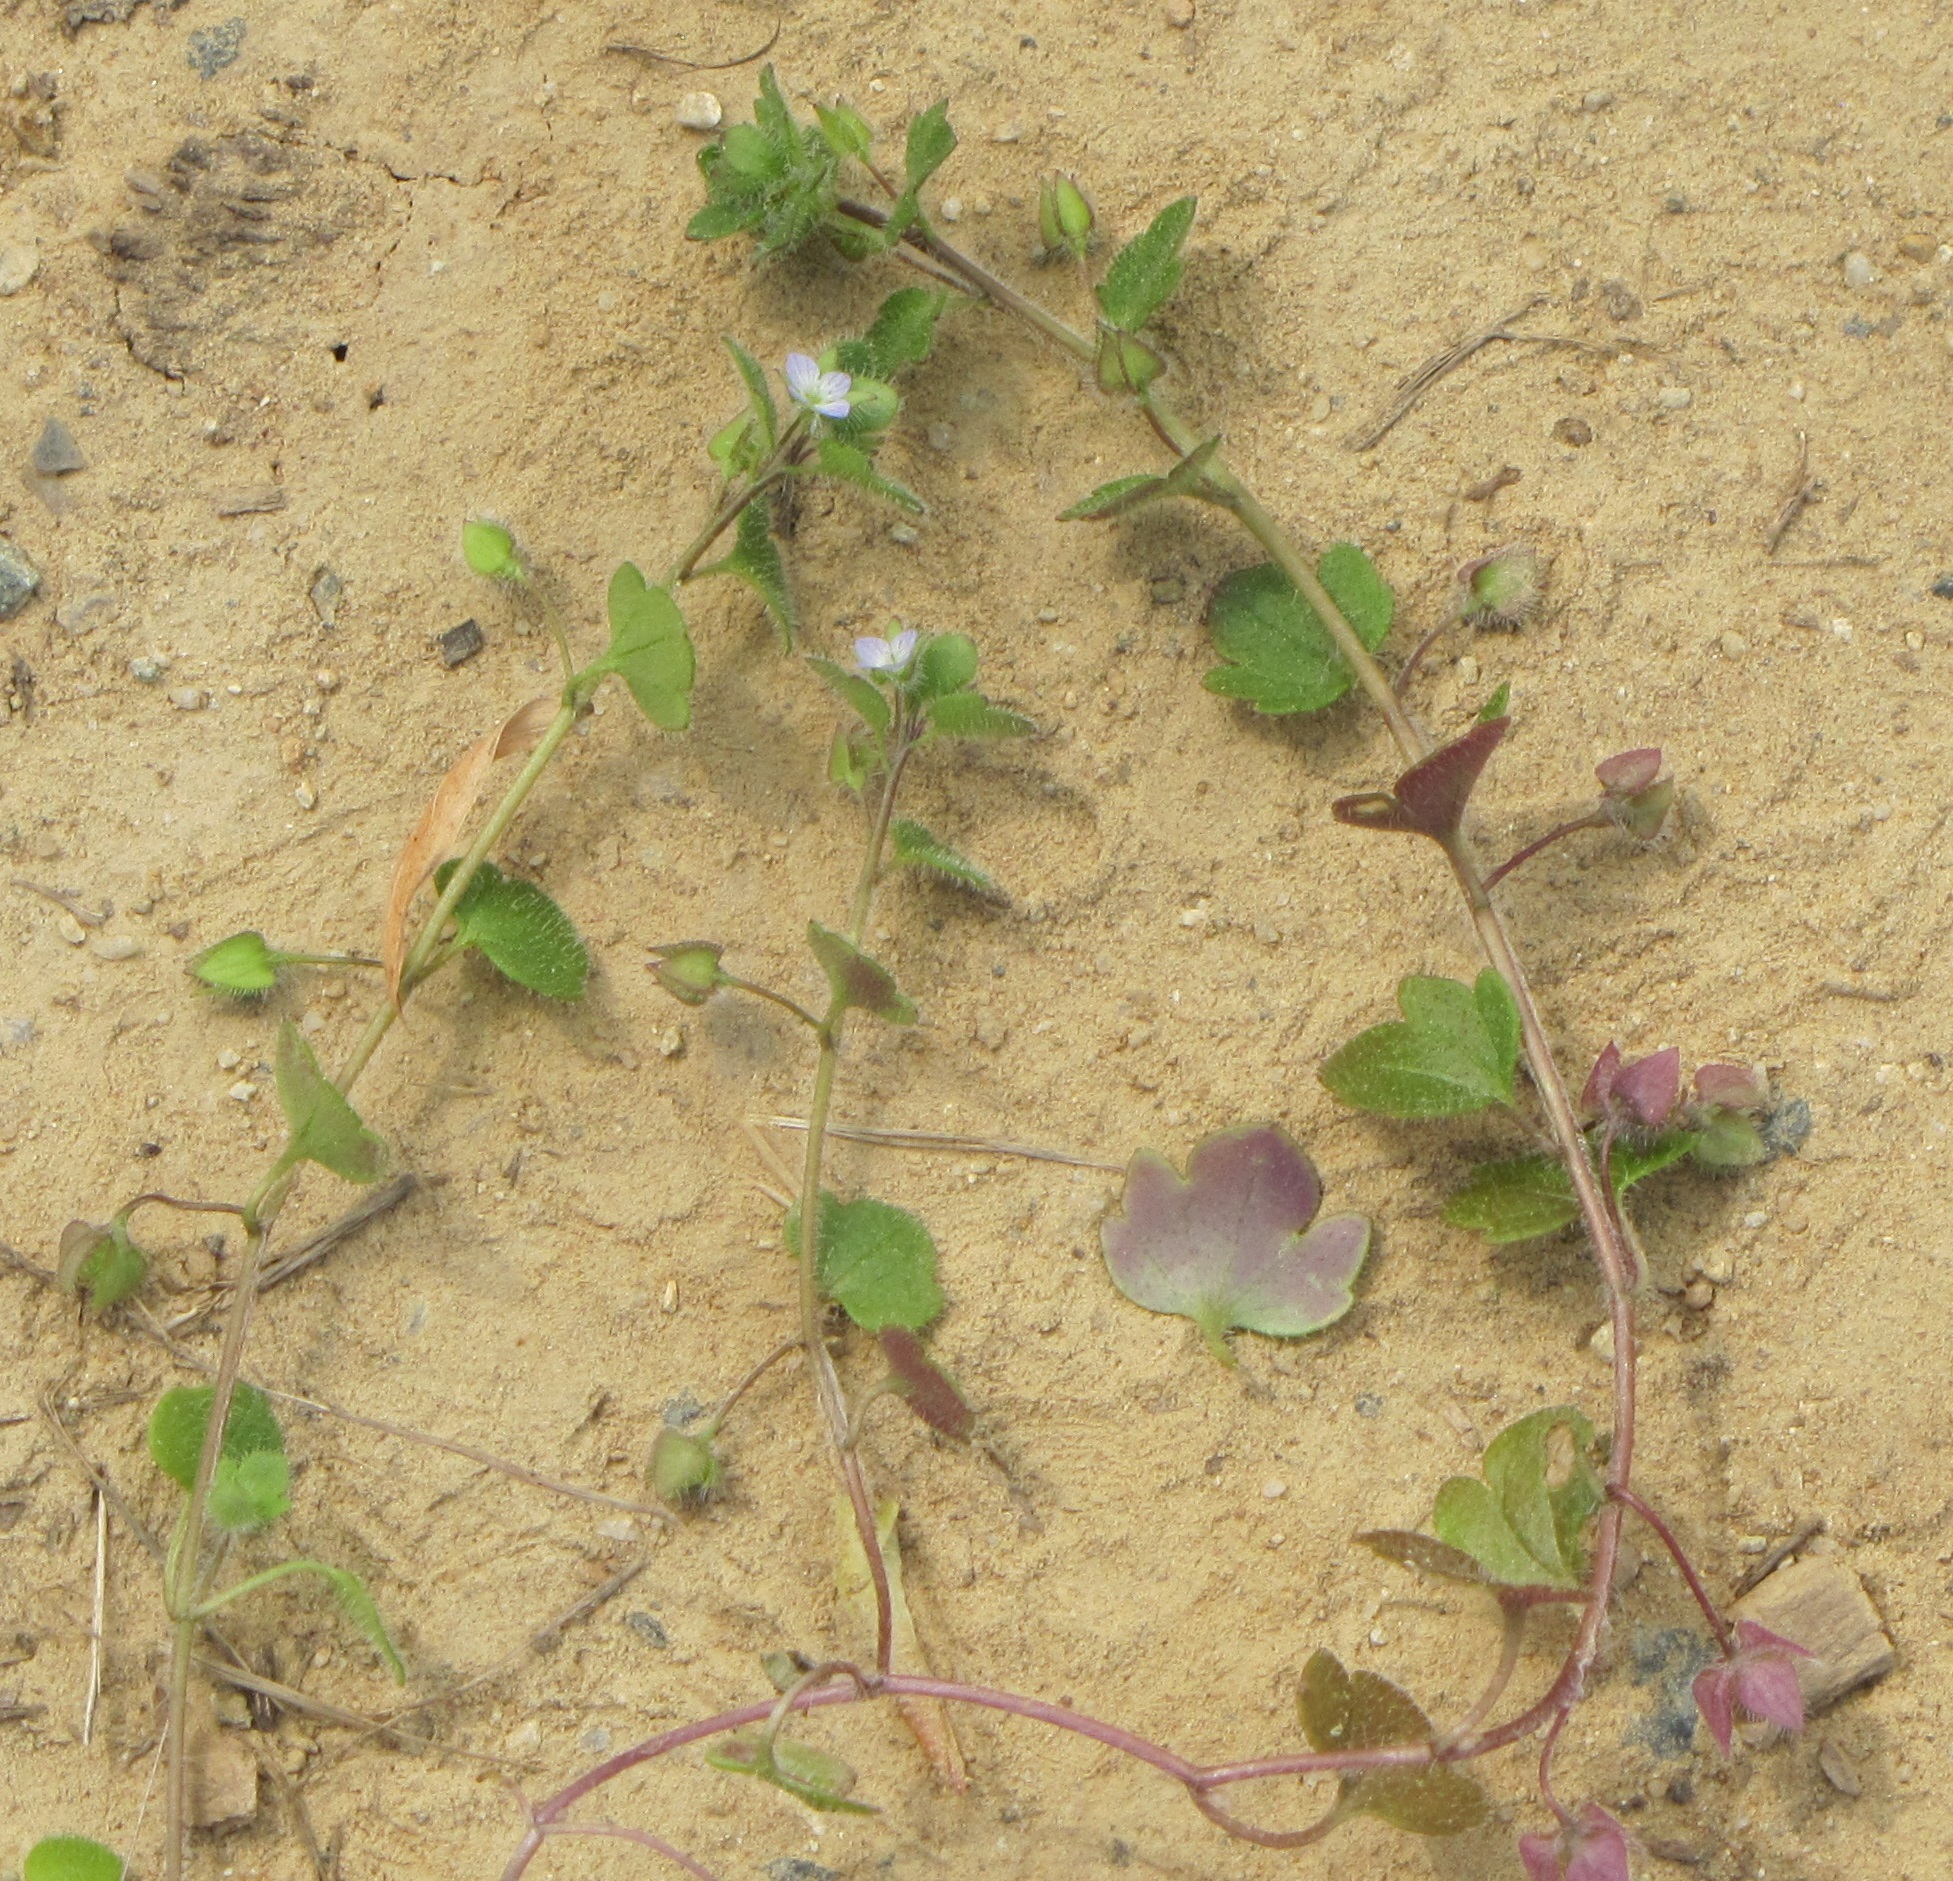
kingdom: Plantae
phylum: Tracheophyta
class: Magnoliopsida
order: Lamiales
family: Plantaginaceae
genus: Veronica
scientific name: Veronica hederifolia
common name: Ivy-leaved speedwell
